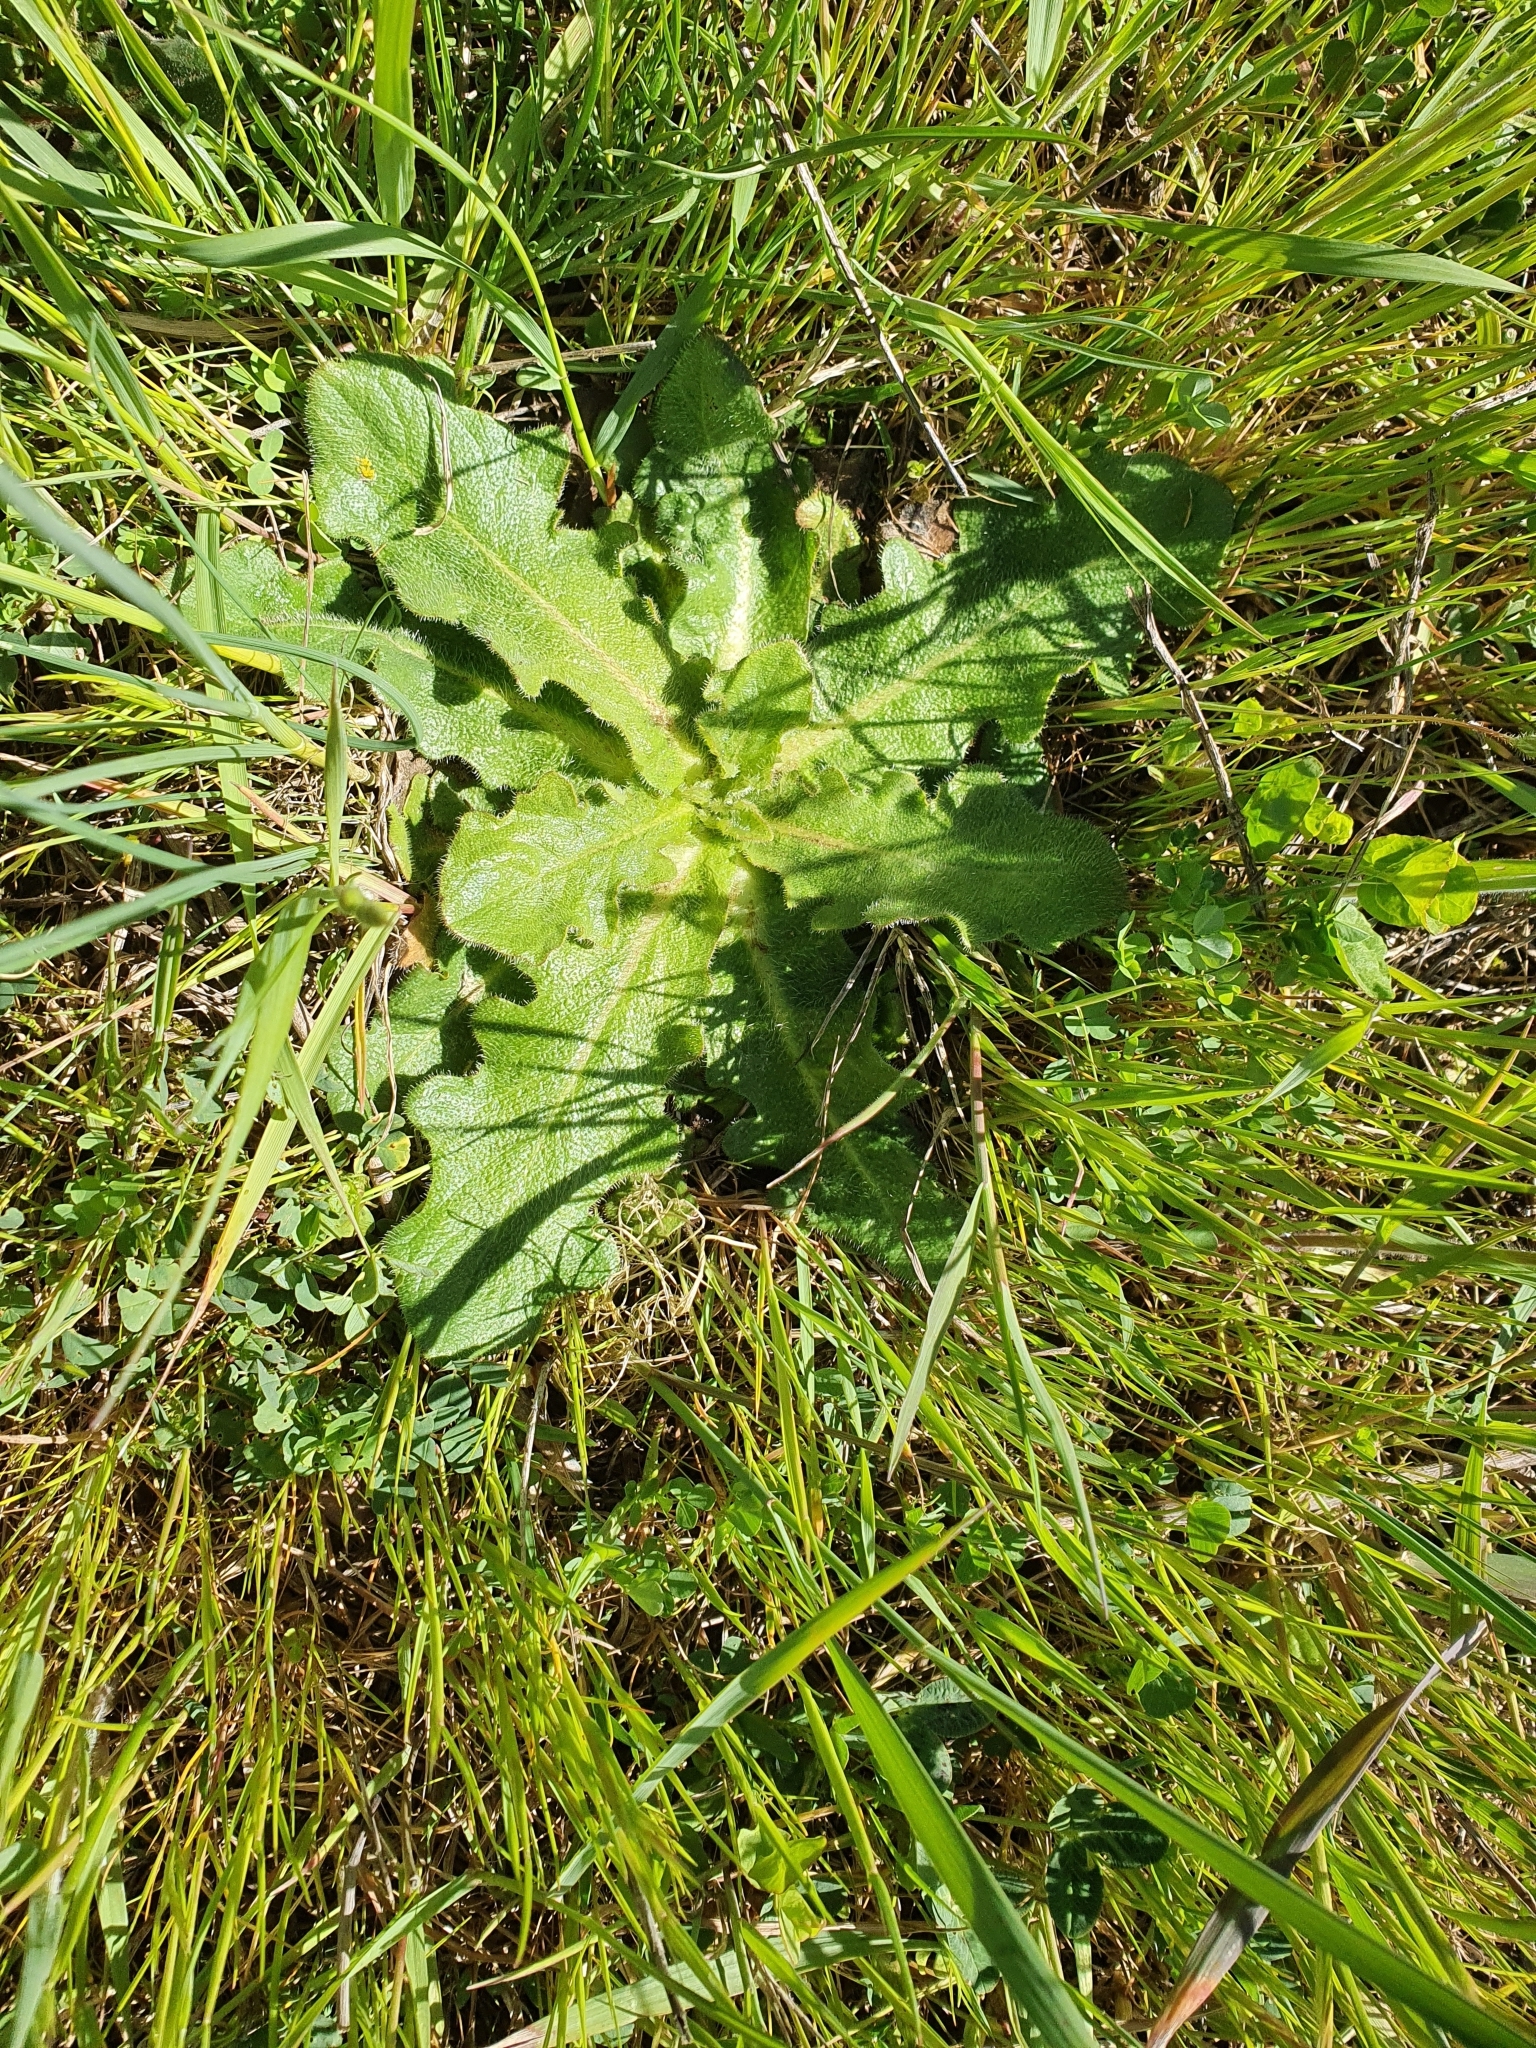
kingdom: Plantae
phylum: Tracheophyta
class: Magnoliopsida
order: Asterales
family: Asteraceae
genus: Hypochaeris
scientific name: Hypochaeris radicata
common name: Flatweed
